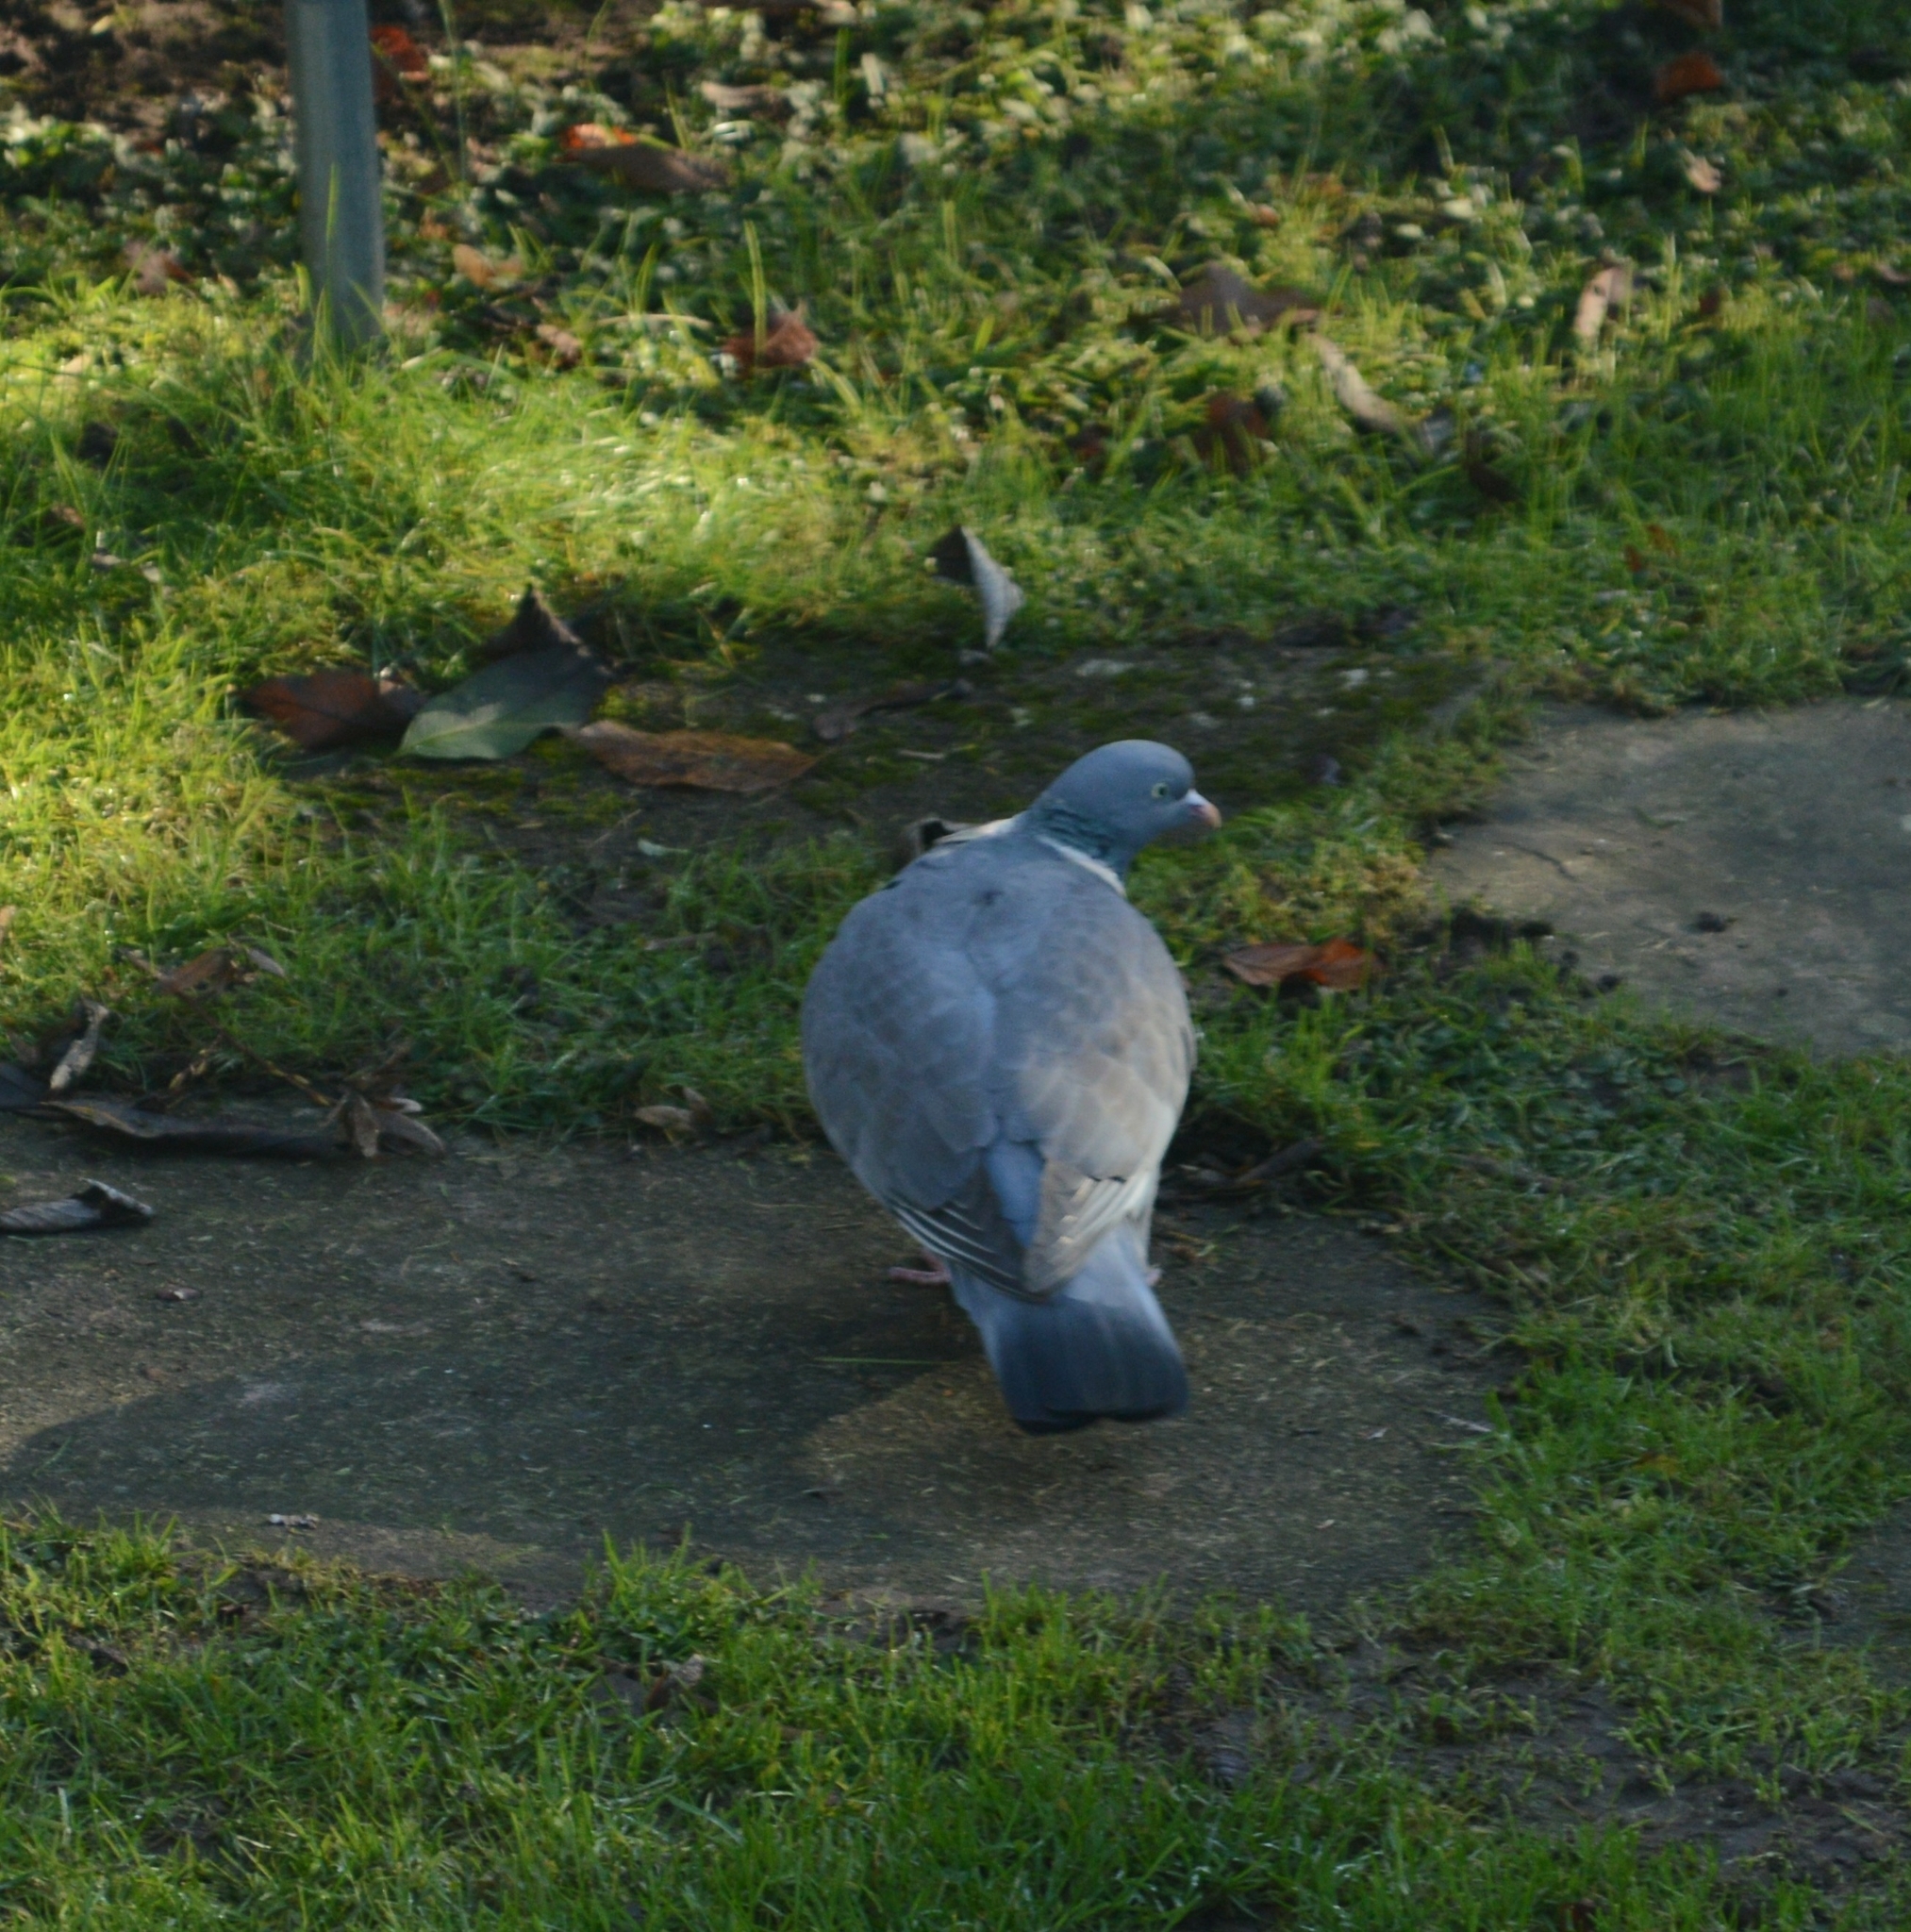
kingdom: Animalia
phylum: Chordata
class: Aves
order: Columbiformes
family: Columbidae
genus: Columba
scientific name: Columba palumbus
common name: Common wood pigeon
